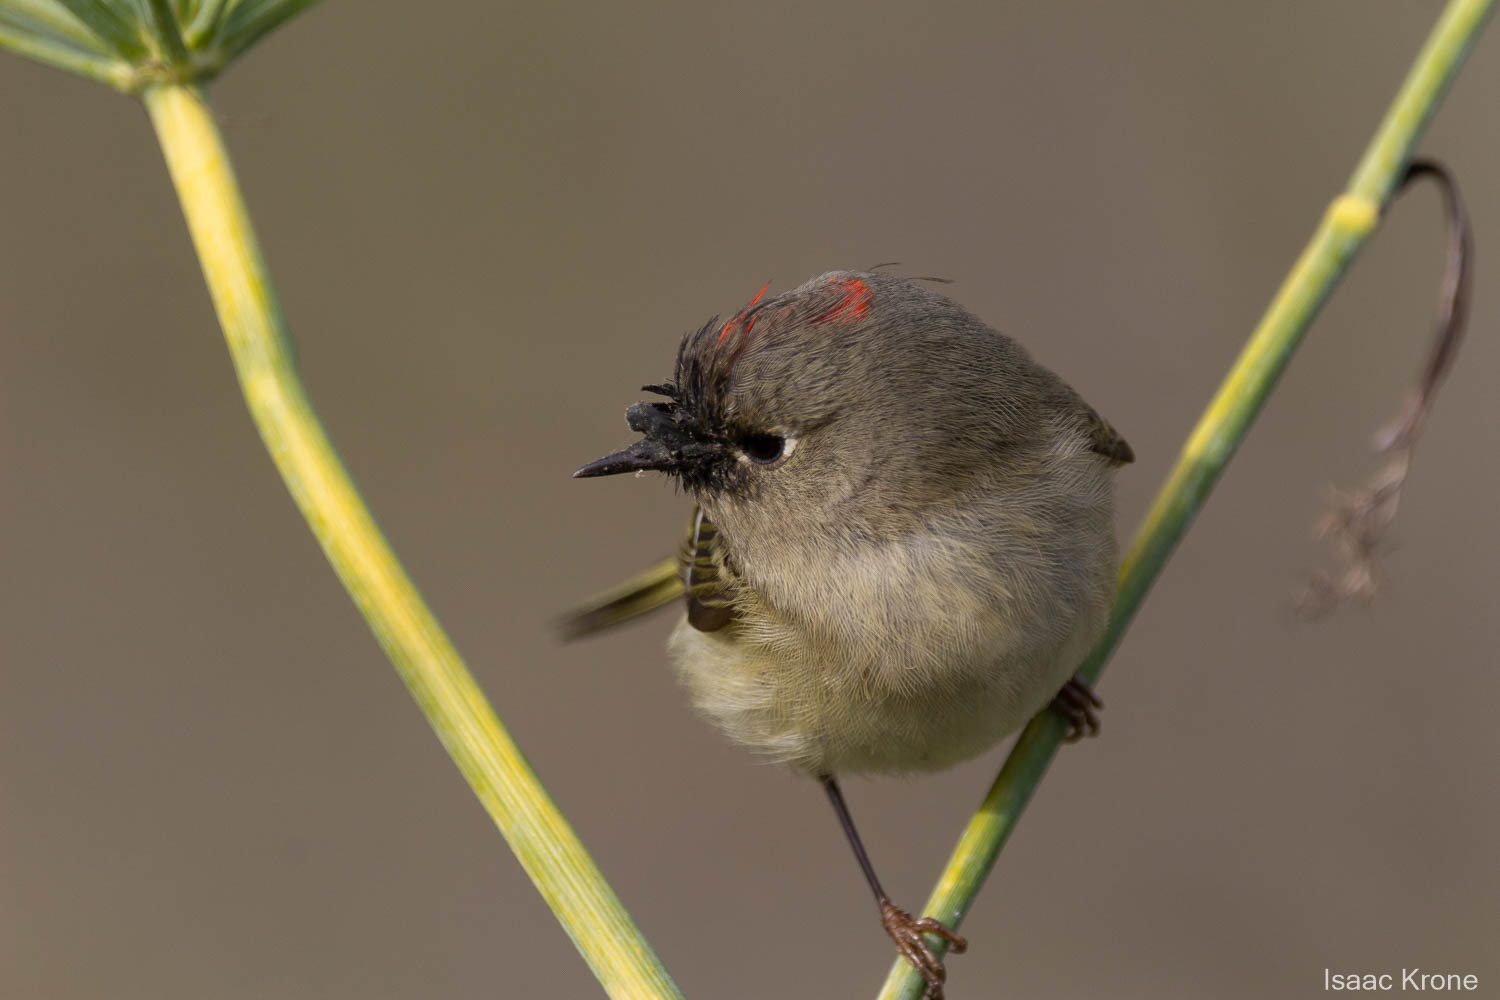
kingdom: Animalia
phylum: Chordata
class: Aves
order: Passeriformes
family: Regulidae
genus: Regulus
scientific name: Regulus calendula
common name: Ruby-crowned kinglet
